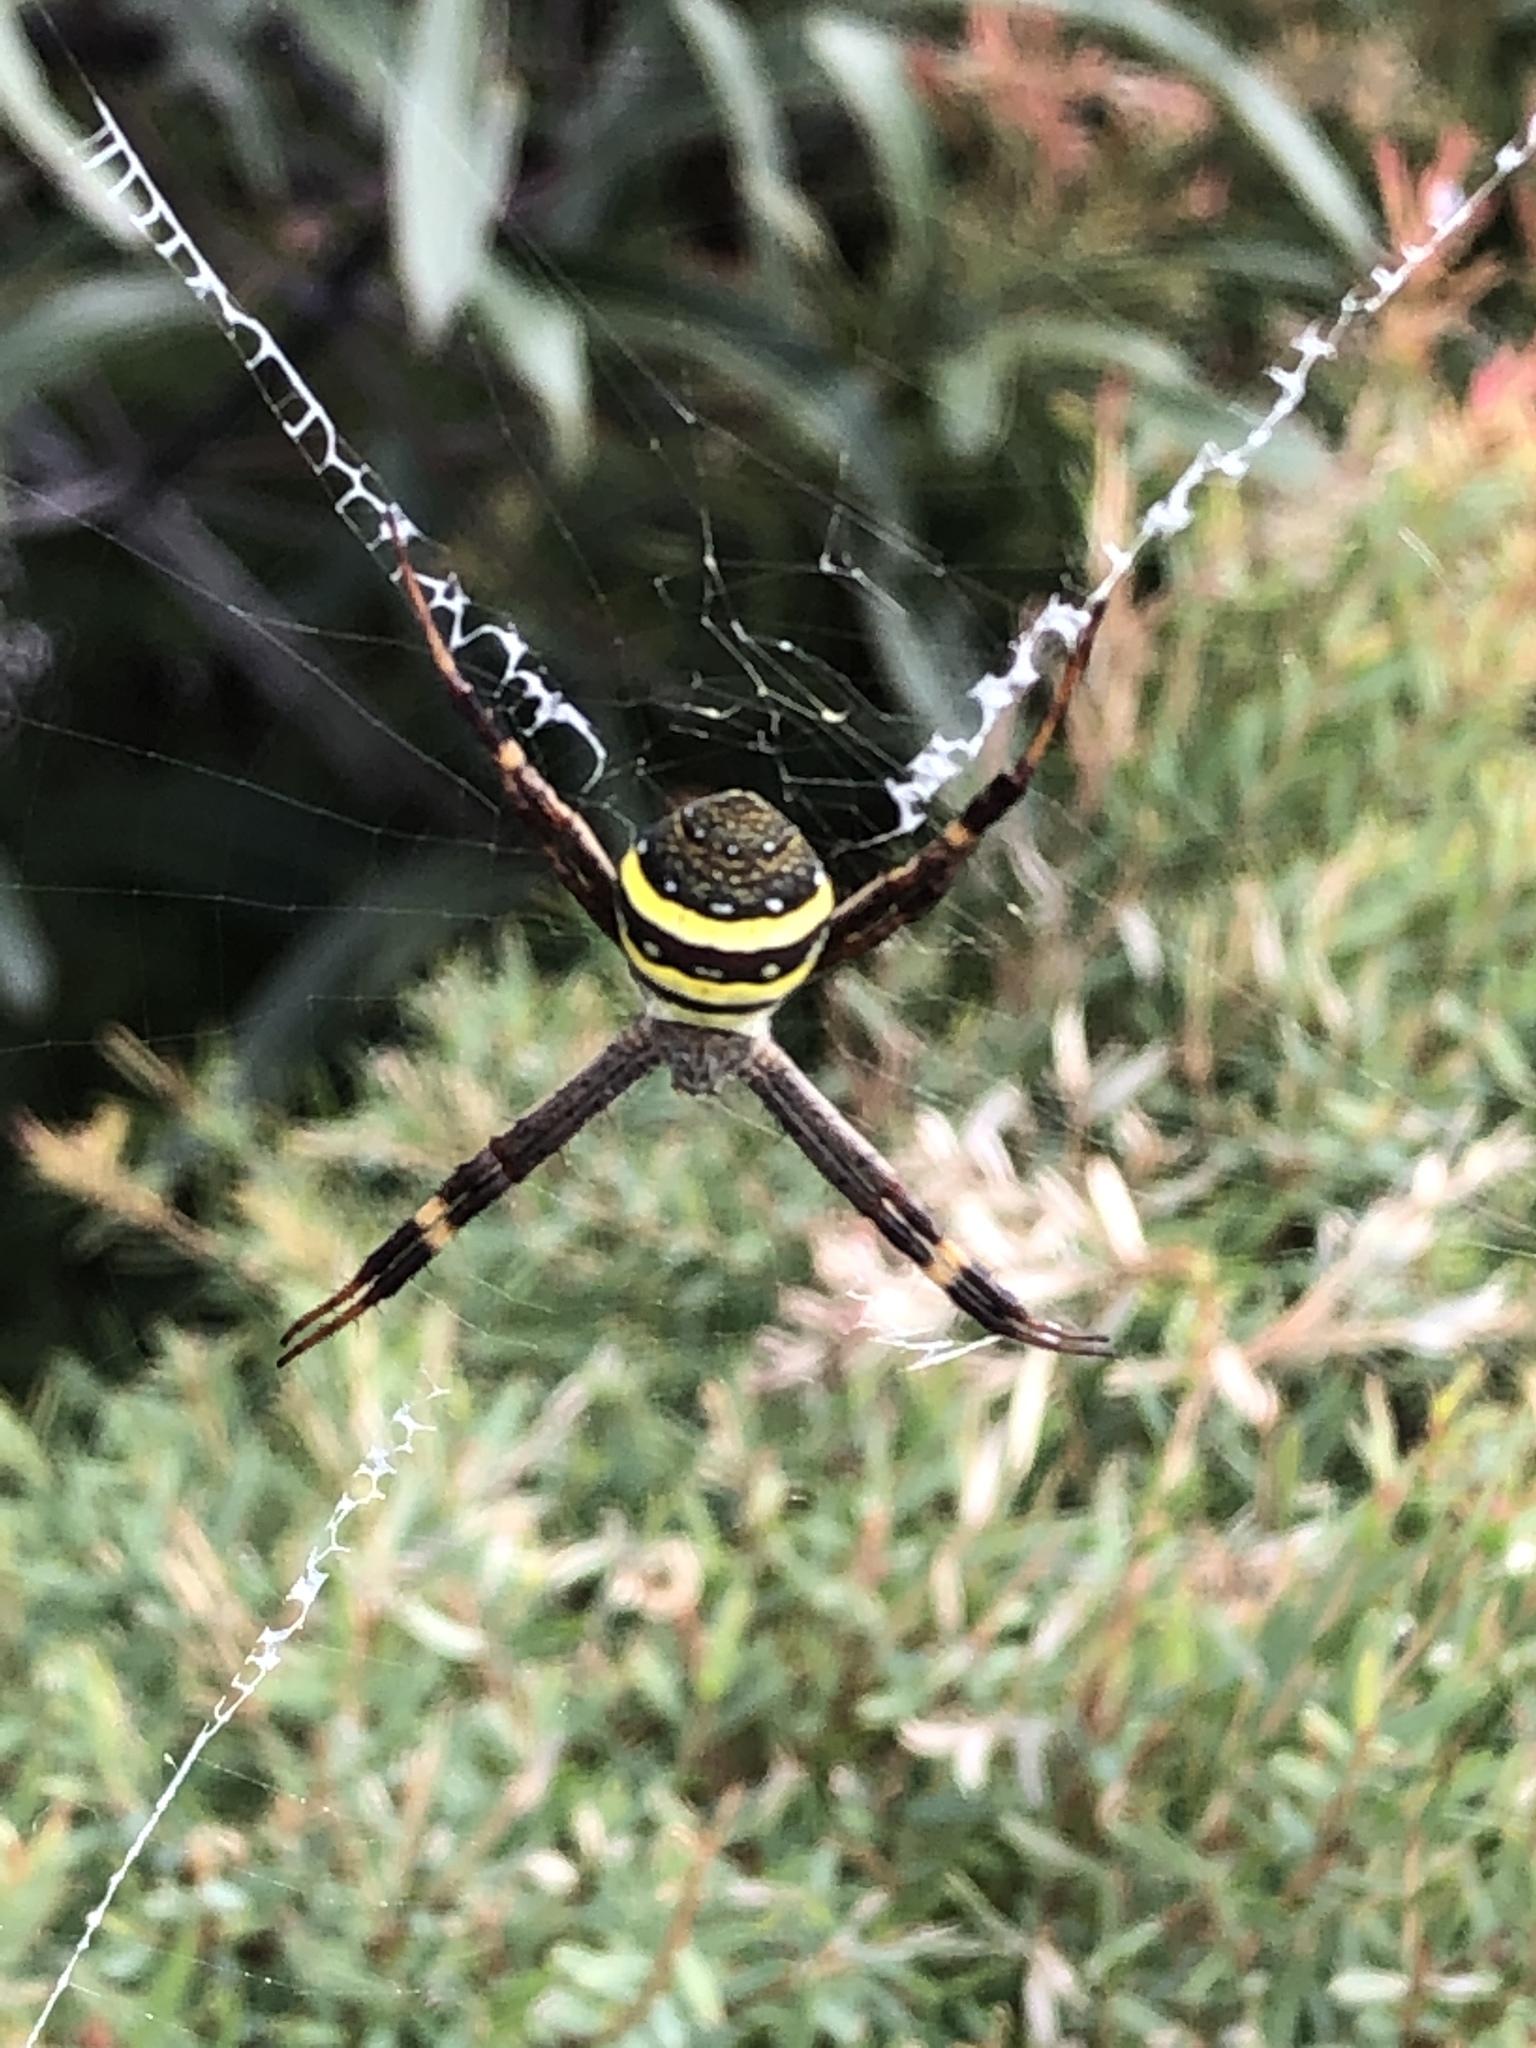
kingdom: Animalia
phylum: Arthropoda
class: Arachnida
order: Araneae
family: Araneidae
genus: Argiope
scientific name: Argiope keyserlingi
